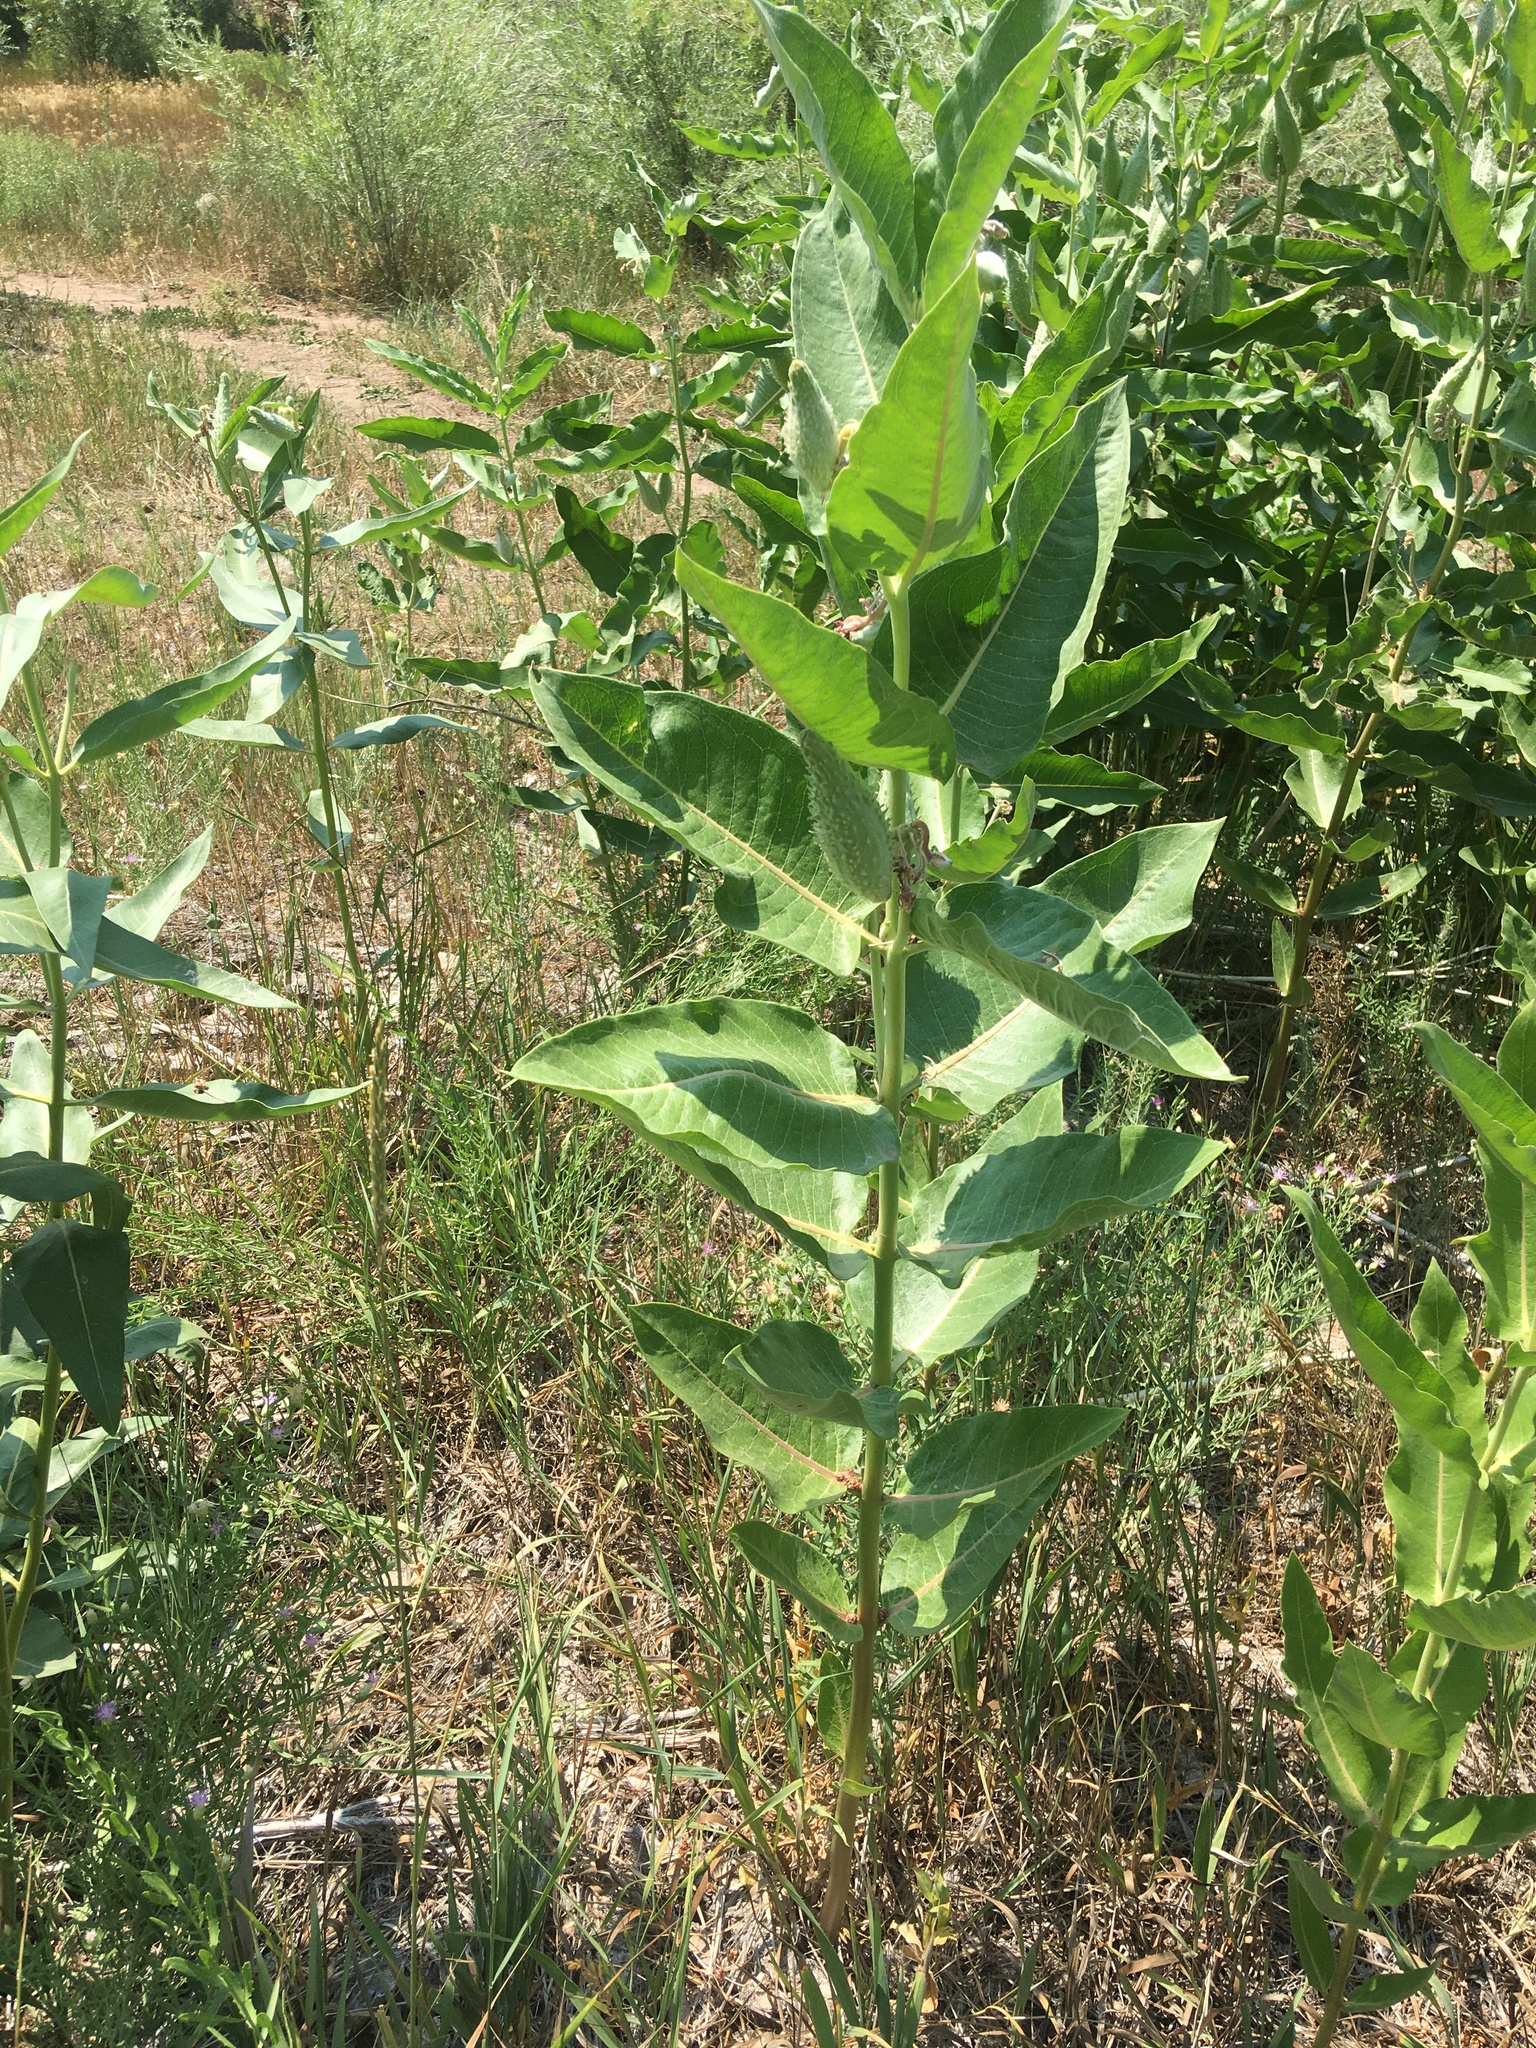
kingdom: Plantae
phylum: Tracheophyta
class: Magnoliopsida
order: Gentianales
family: Apocynaceae
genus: Asclepias
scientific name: Asclepias speciosa
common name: Showy milkweed
